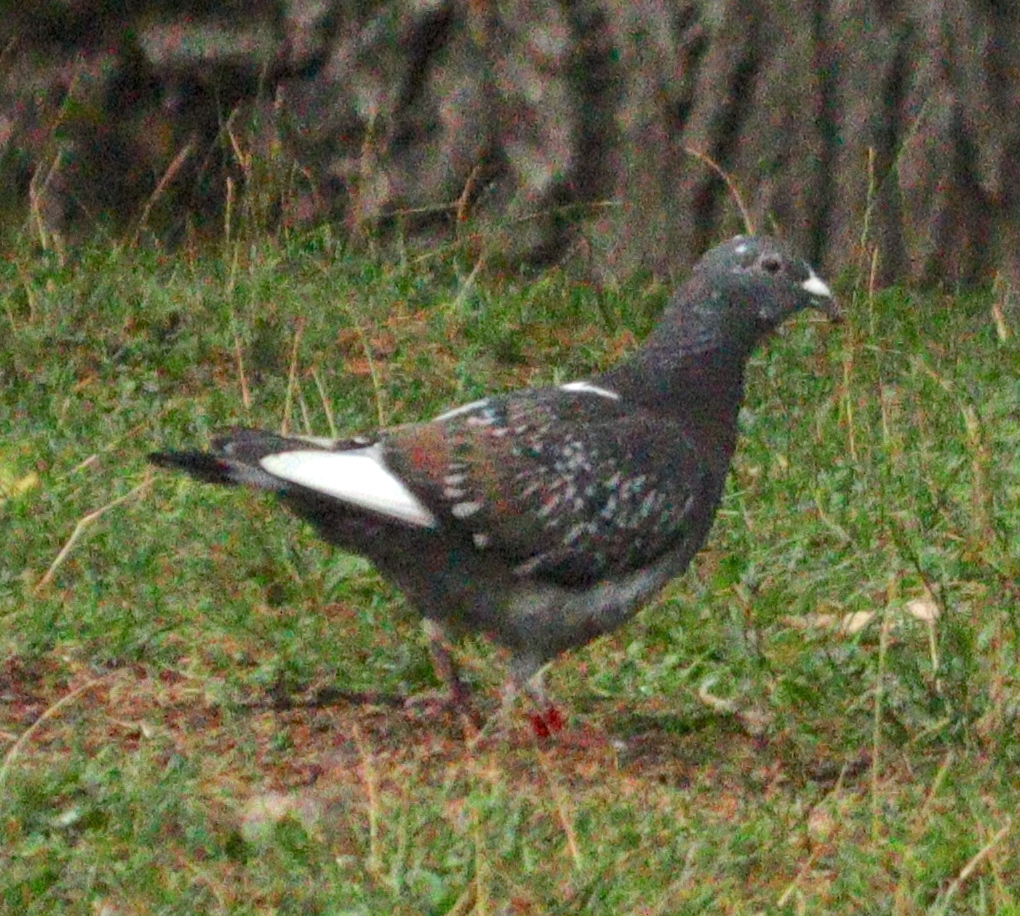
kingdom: Animalia
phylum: Chordata
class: Aves
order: Columbiformes
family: Columbidae
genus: Columba
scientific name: Columba livia
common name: Rock pigeon
